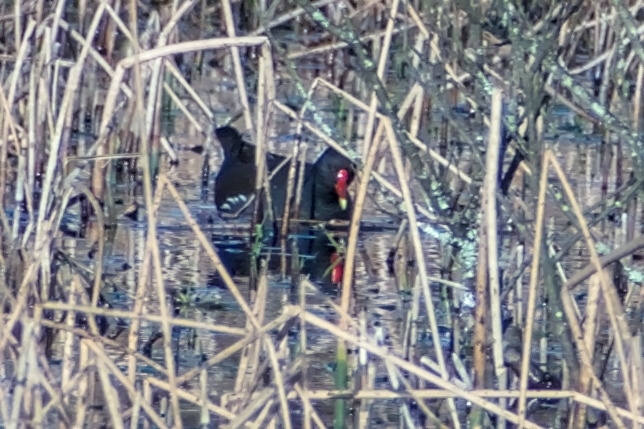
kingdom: Animalia
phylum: Chordata
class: Aves
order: Gruiformes
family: Rallidae
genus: Gallinula
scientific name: Gallinula chloropus
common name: Common moorhen
